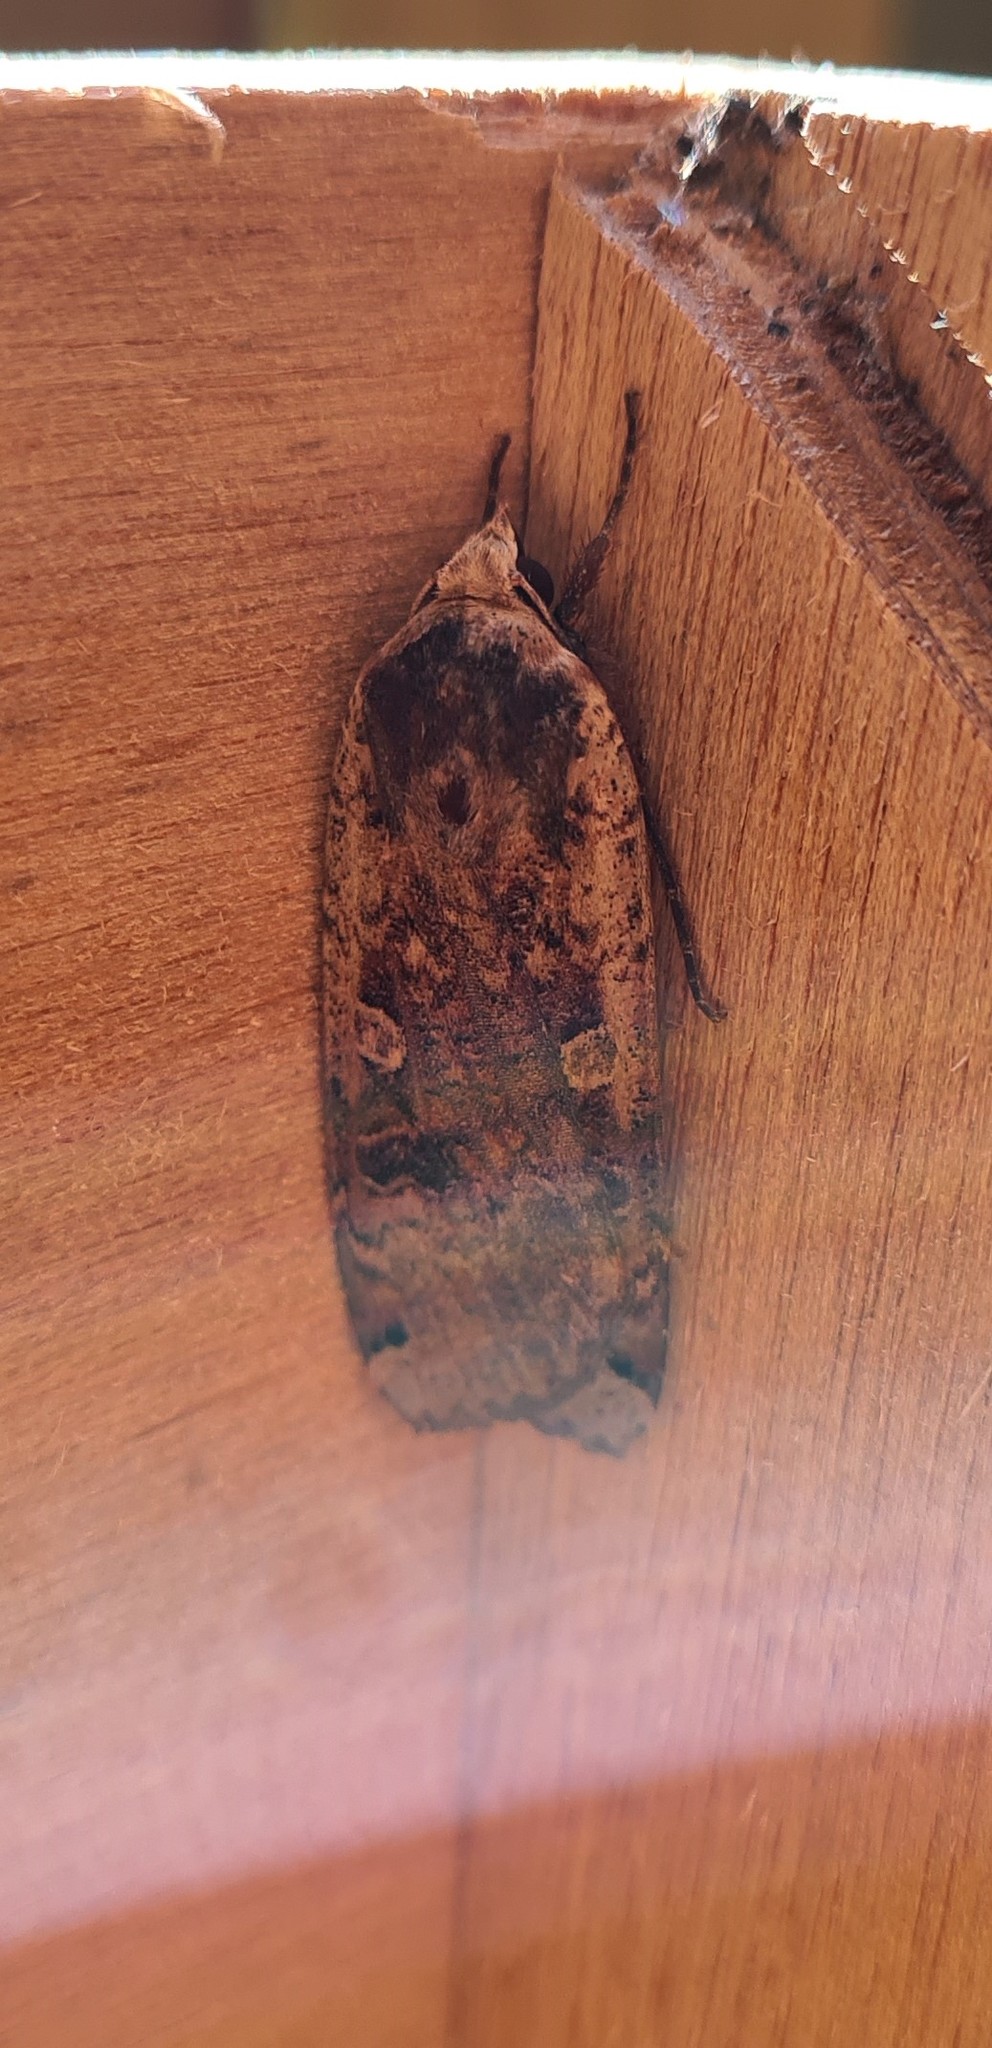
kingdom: Animalia
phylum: Arthropoda
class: Insecta
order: Lepidoptera
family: Noctuidae
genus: Noctua
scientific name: Noctua pronuba
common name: Large yellow underwing
